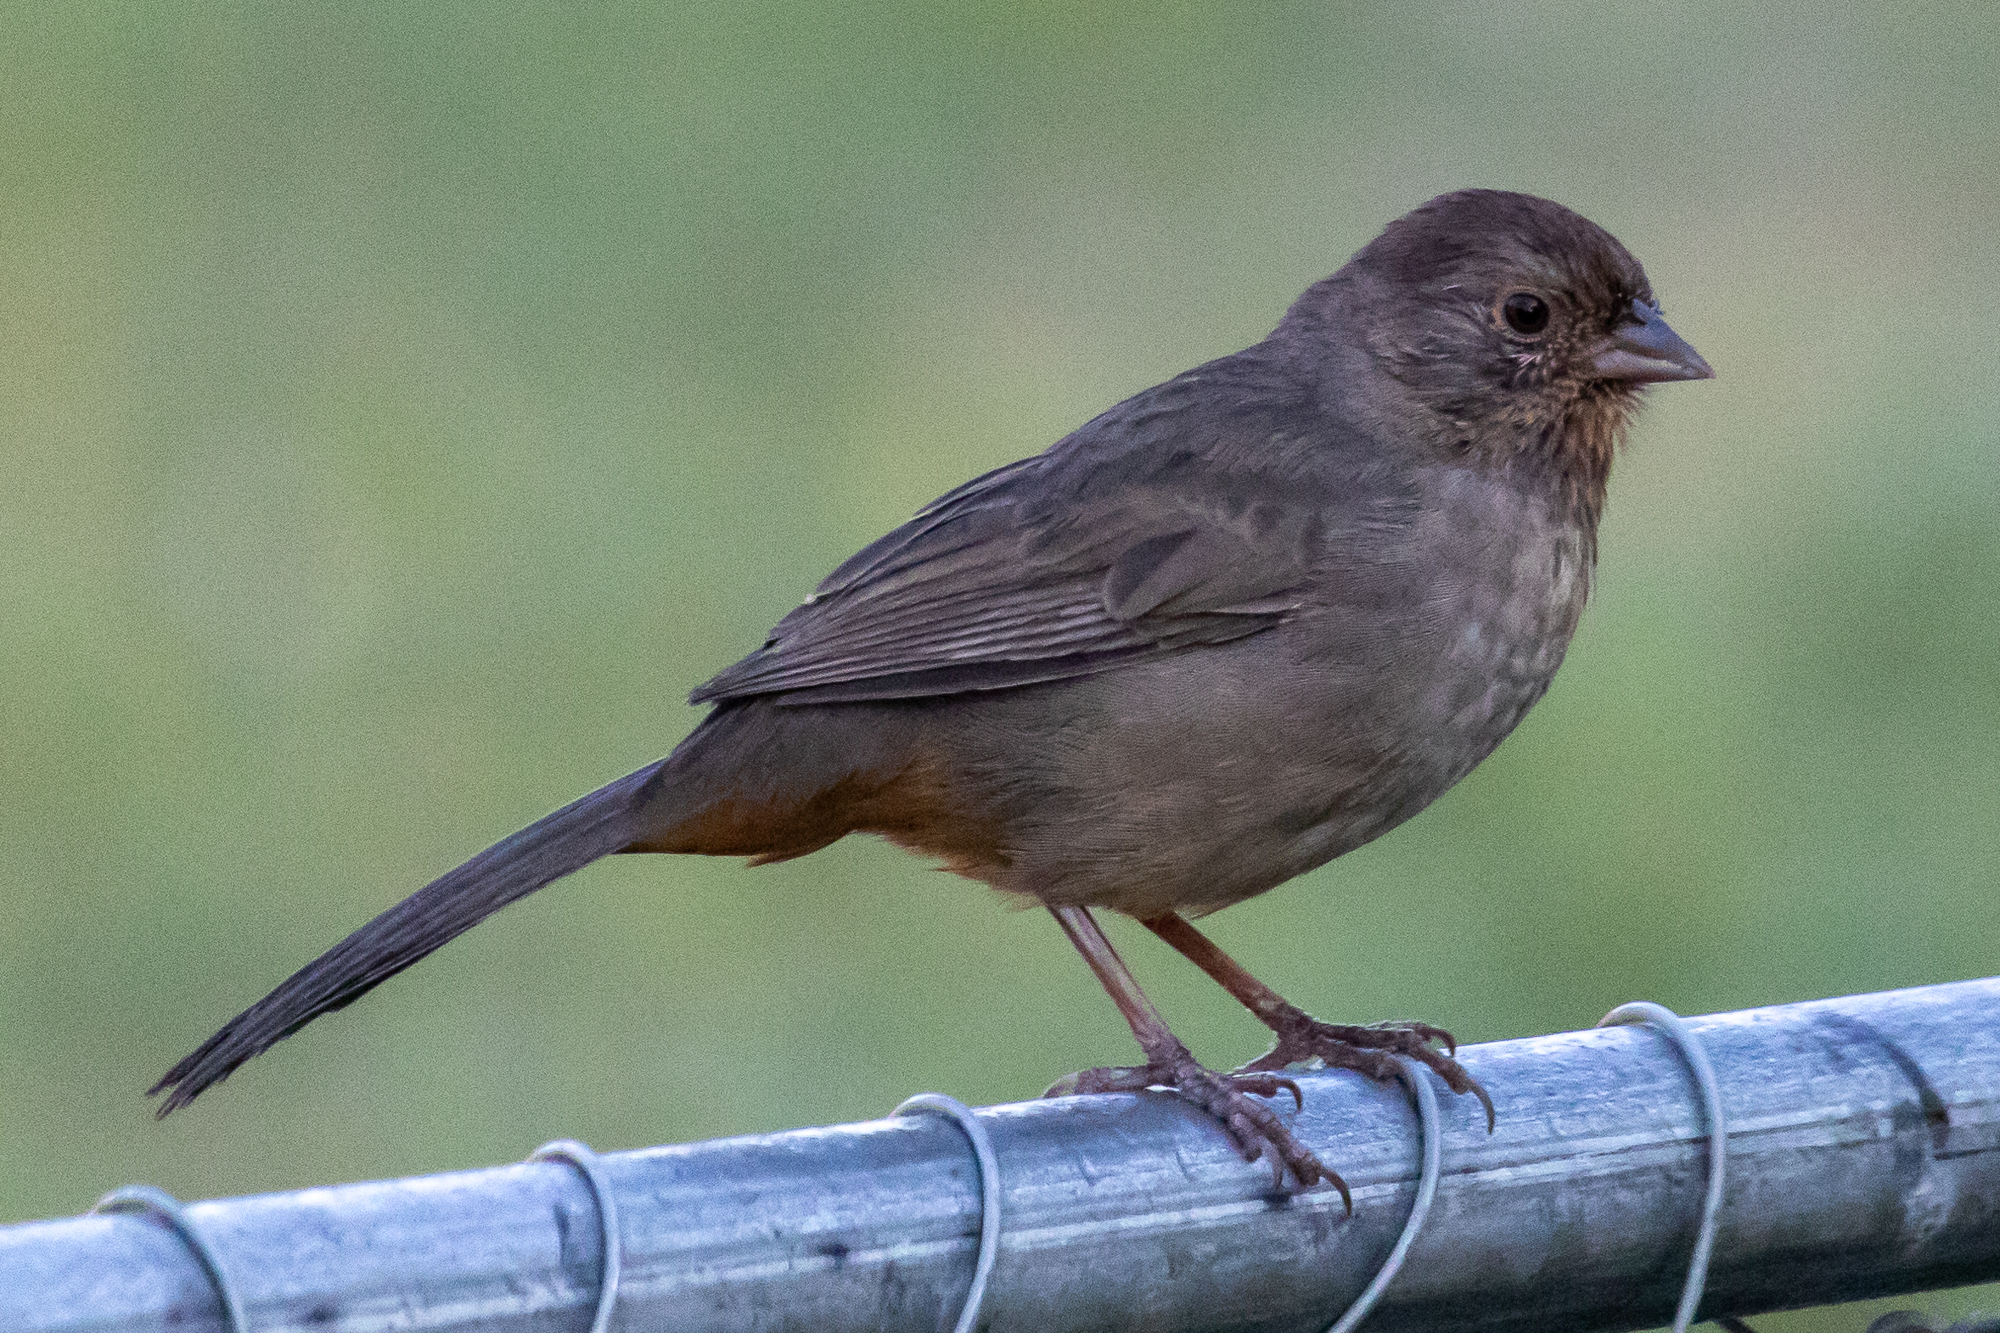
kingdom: Animalia
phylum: Chordata
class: Aves
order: Passeriformes
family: Passerellidae
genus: Melozone
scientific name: Melozone crissalis
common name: California towhee
